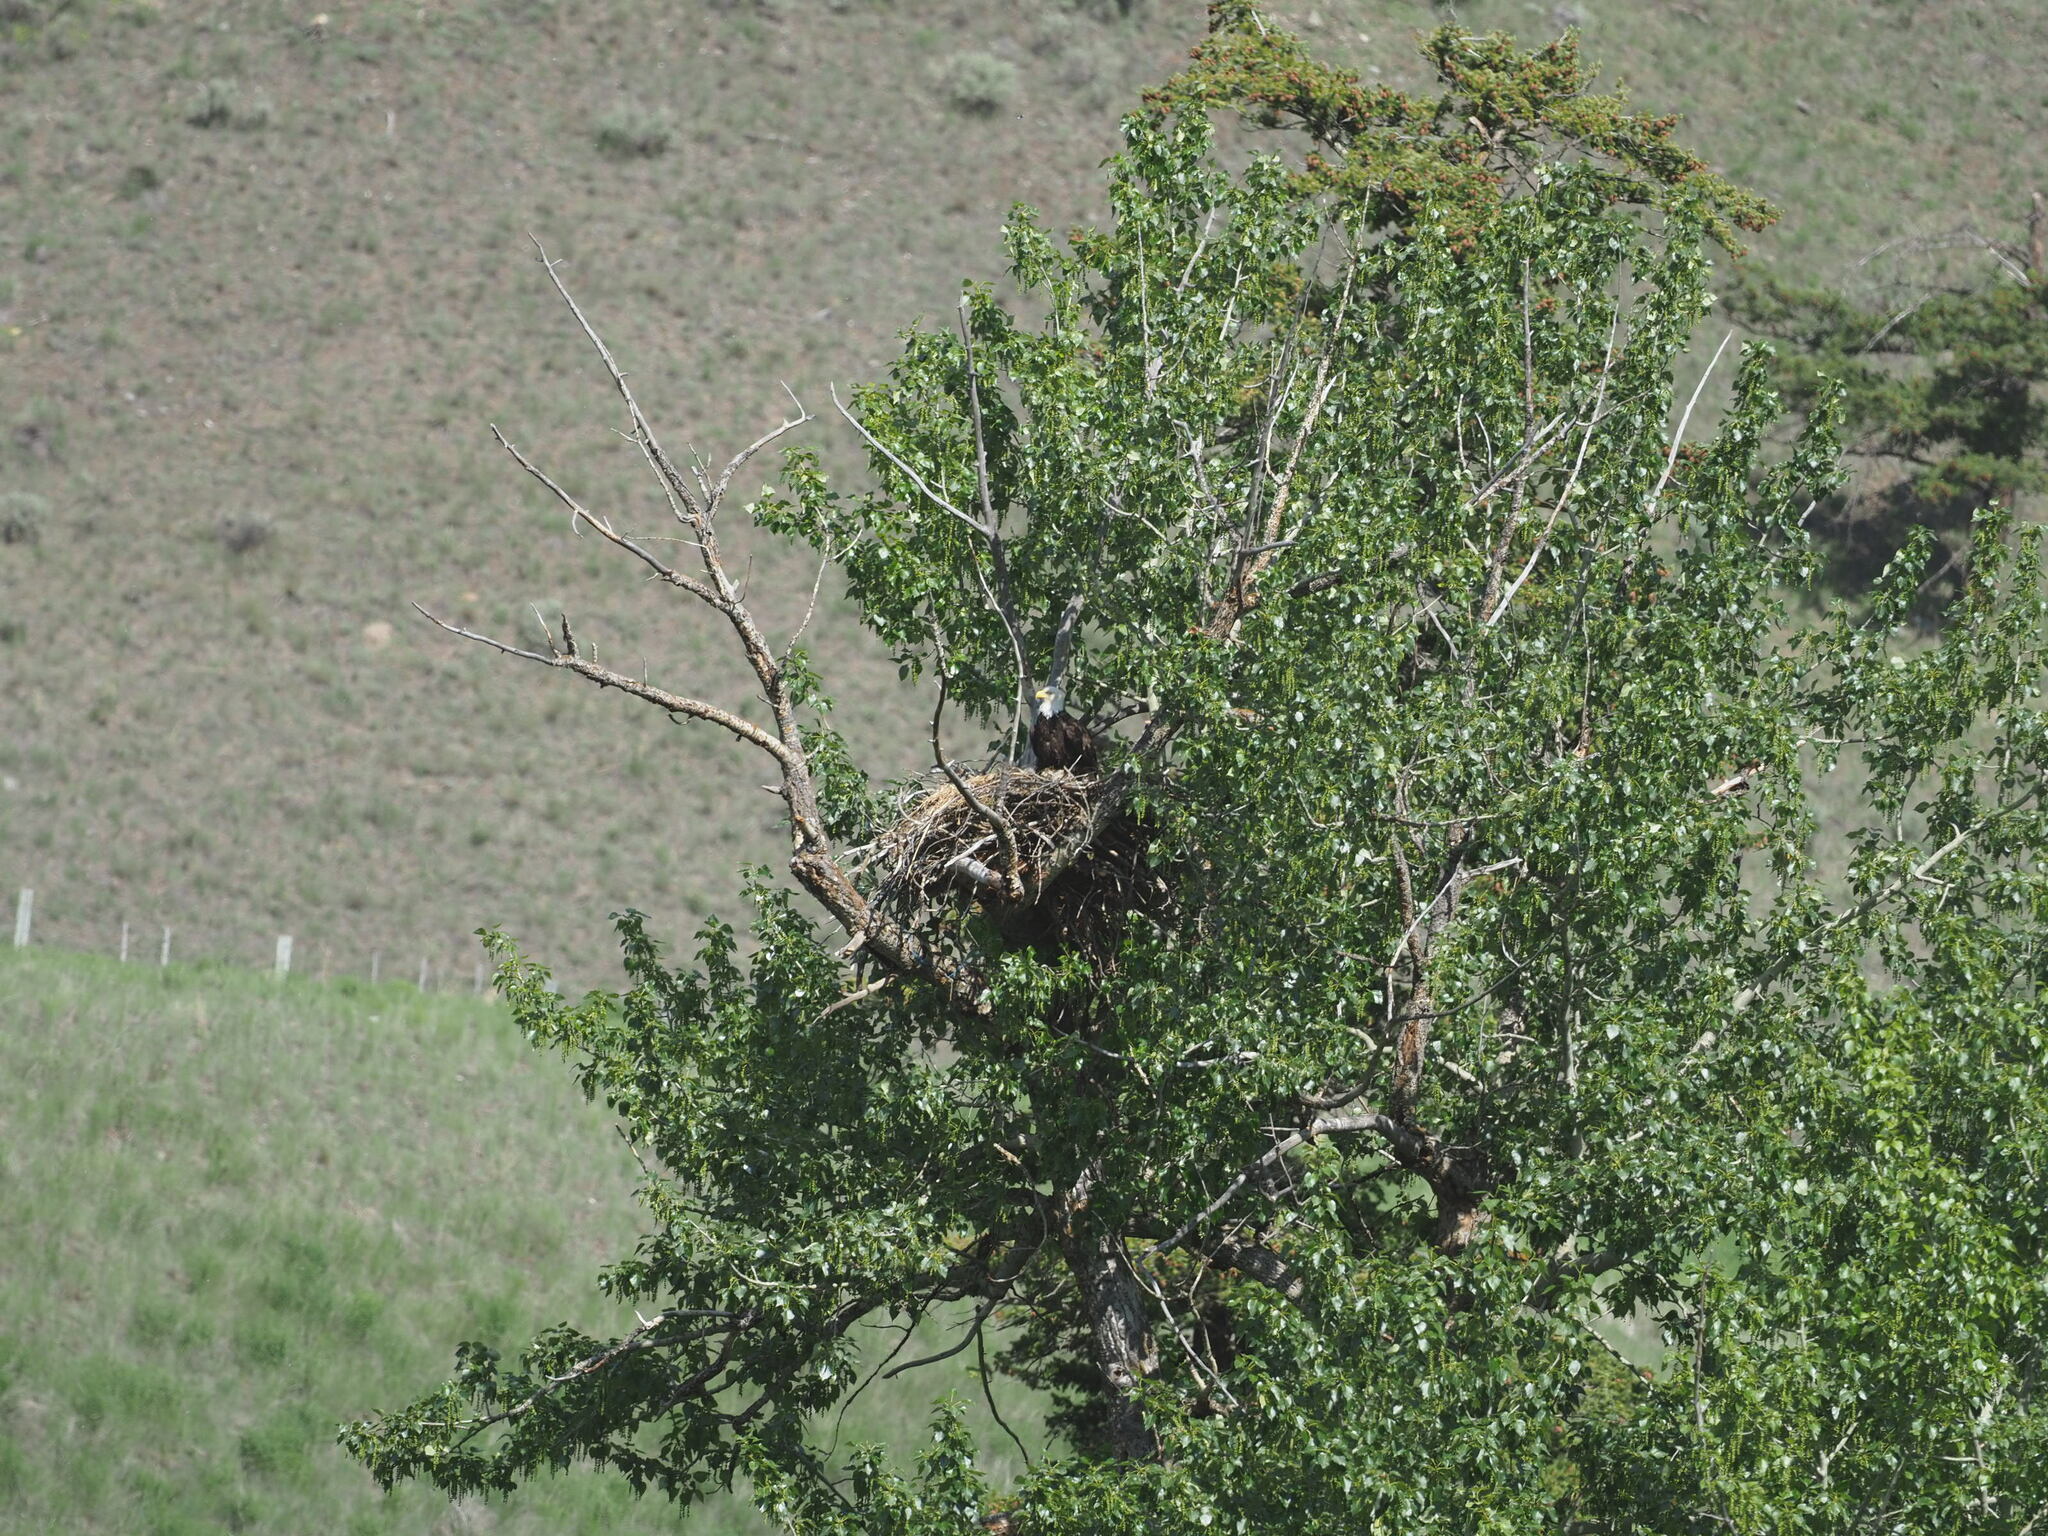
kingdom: Animalia
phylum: Chordata
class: Aves
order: Accipitriformes
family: Accipitridae
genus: Haliaeetus
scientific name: Haliaeetus leucocephalus
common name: Bald eagle
